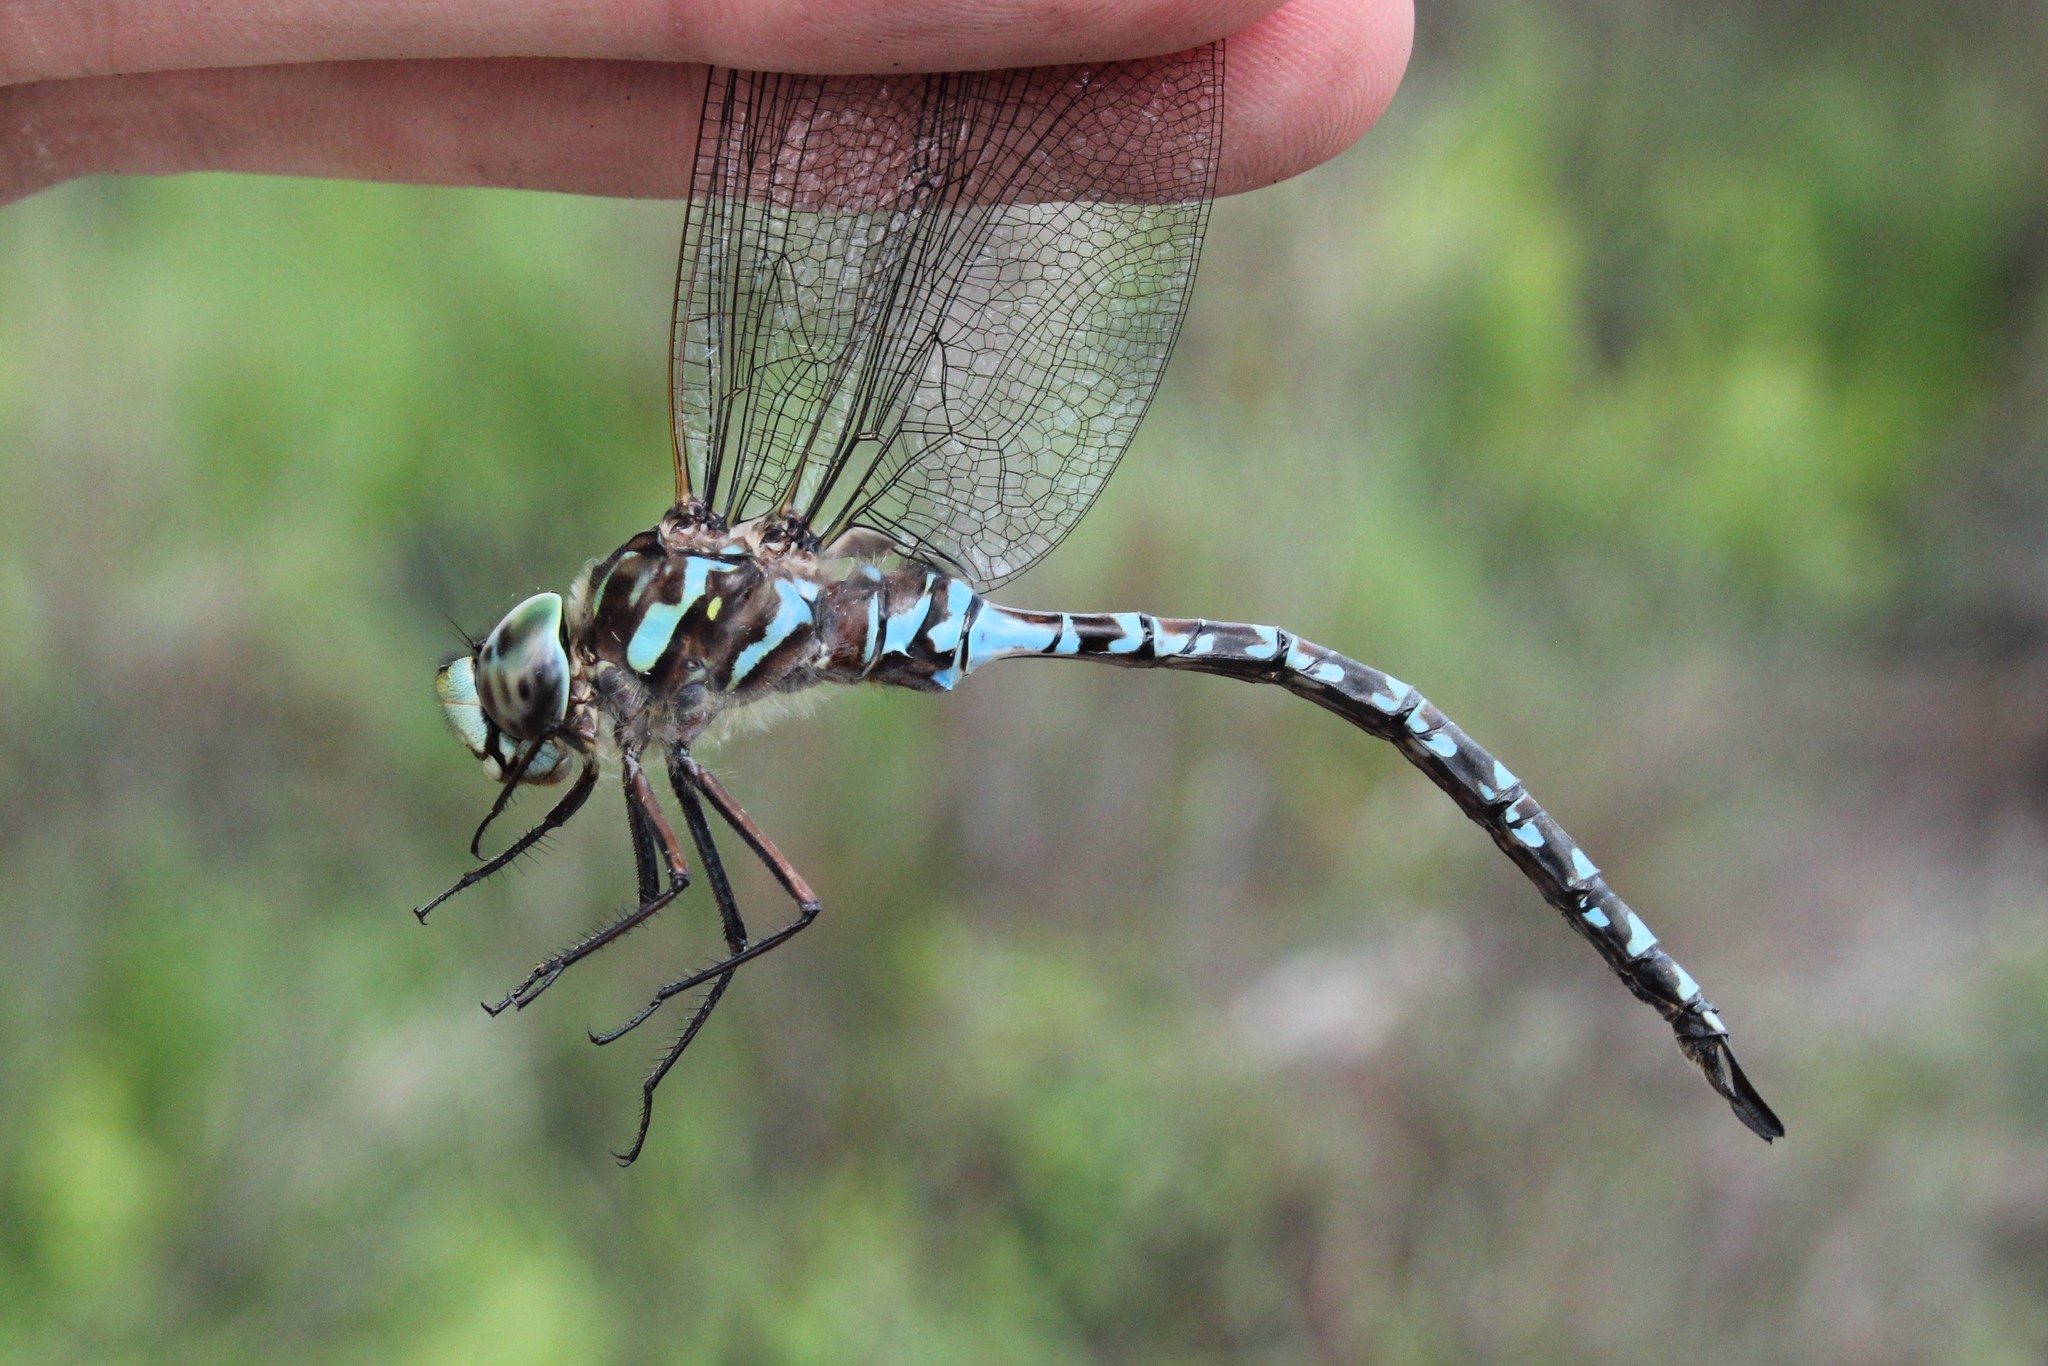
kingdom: Animalia
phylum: Arthropoda
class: Insecta
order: Odonata
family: Aeshnidae
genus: Aeshna
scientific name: Aeshna canadensis
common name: Canada darner
